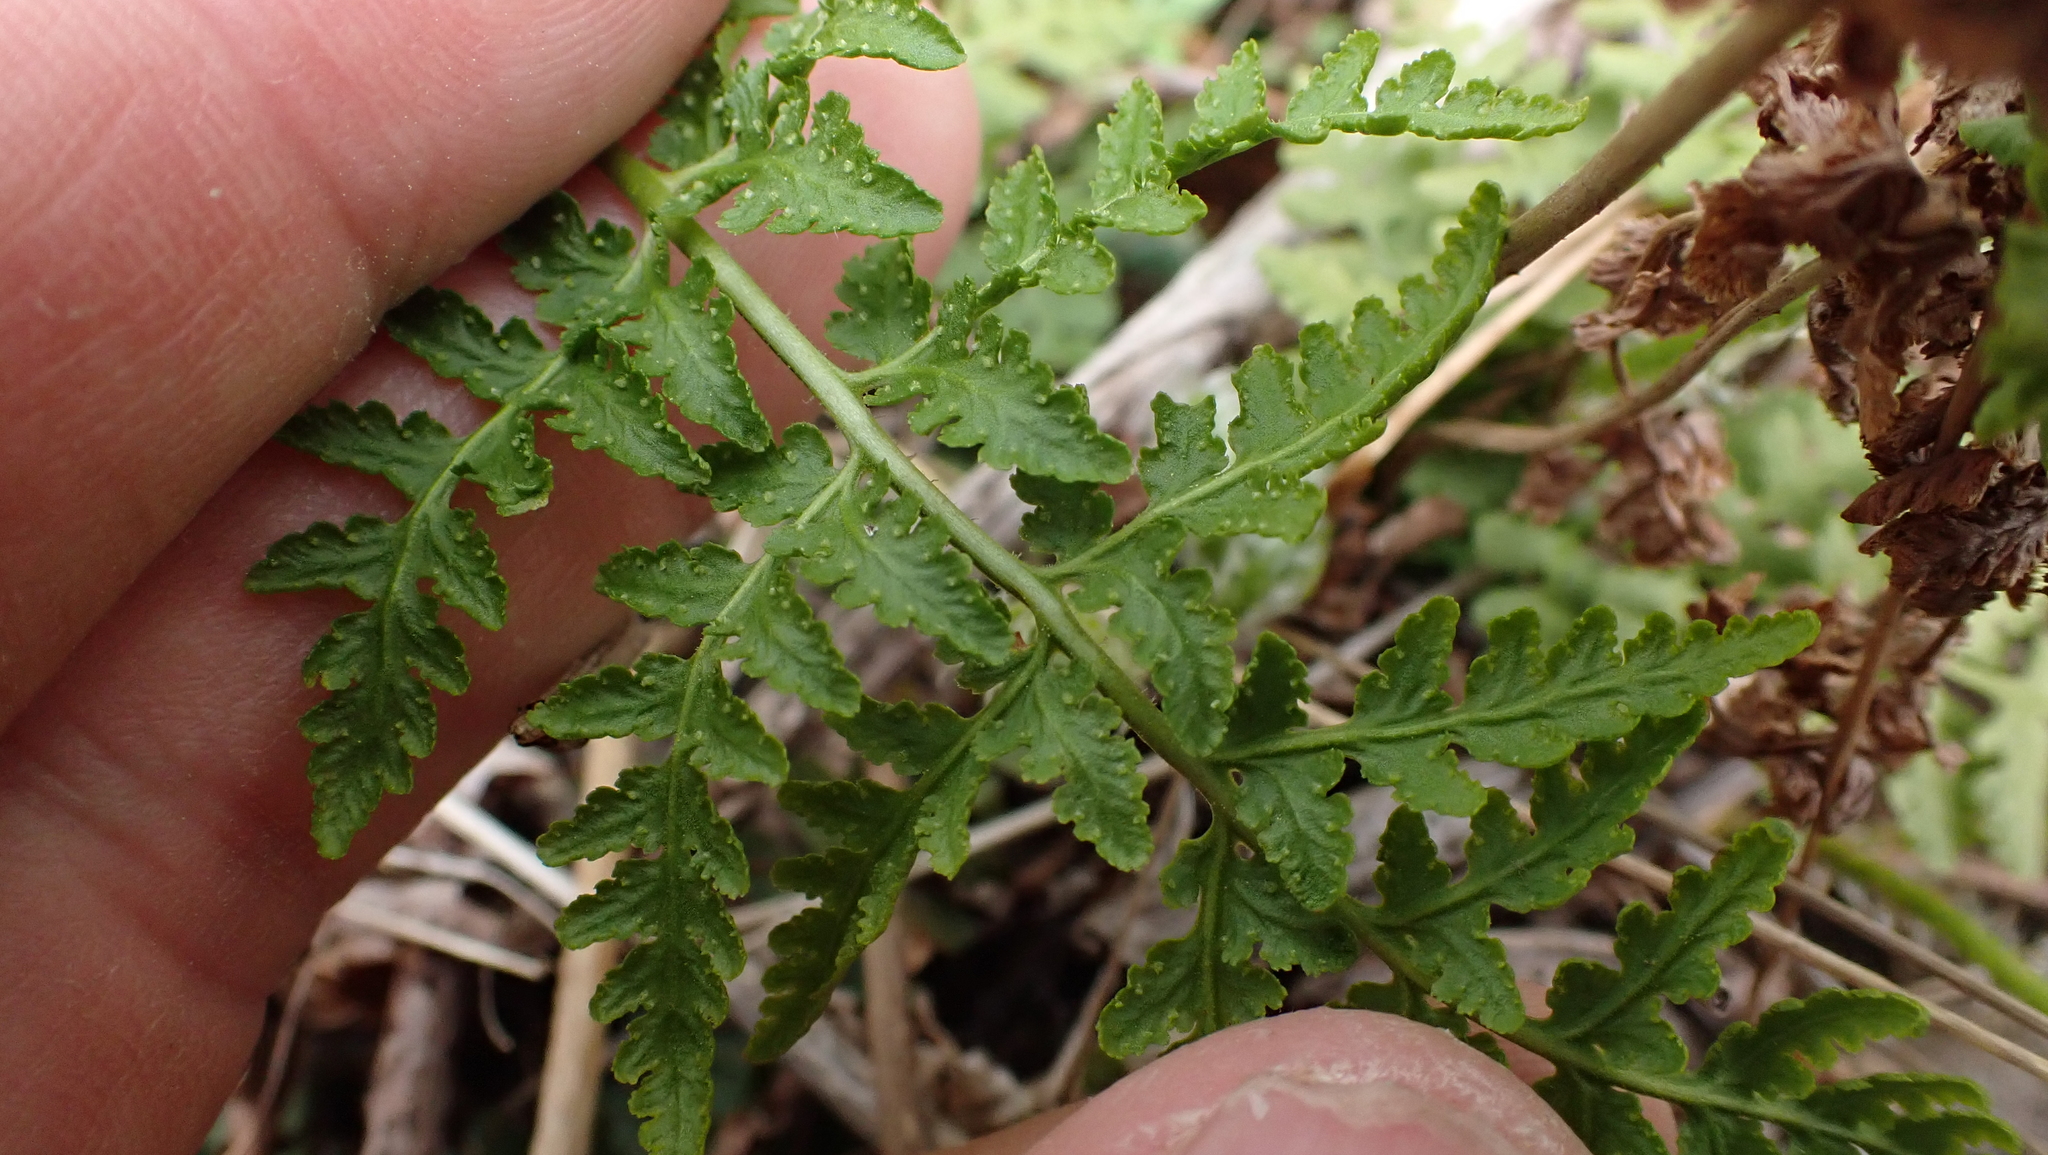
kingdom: Plantae
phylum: Tracheophyta
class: Polypodiopsida
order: Polypodiales
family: Woodsiaceae
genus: Physematium
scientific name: Physematium obtusum
